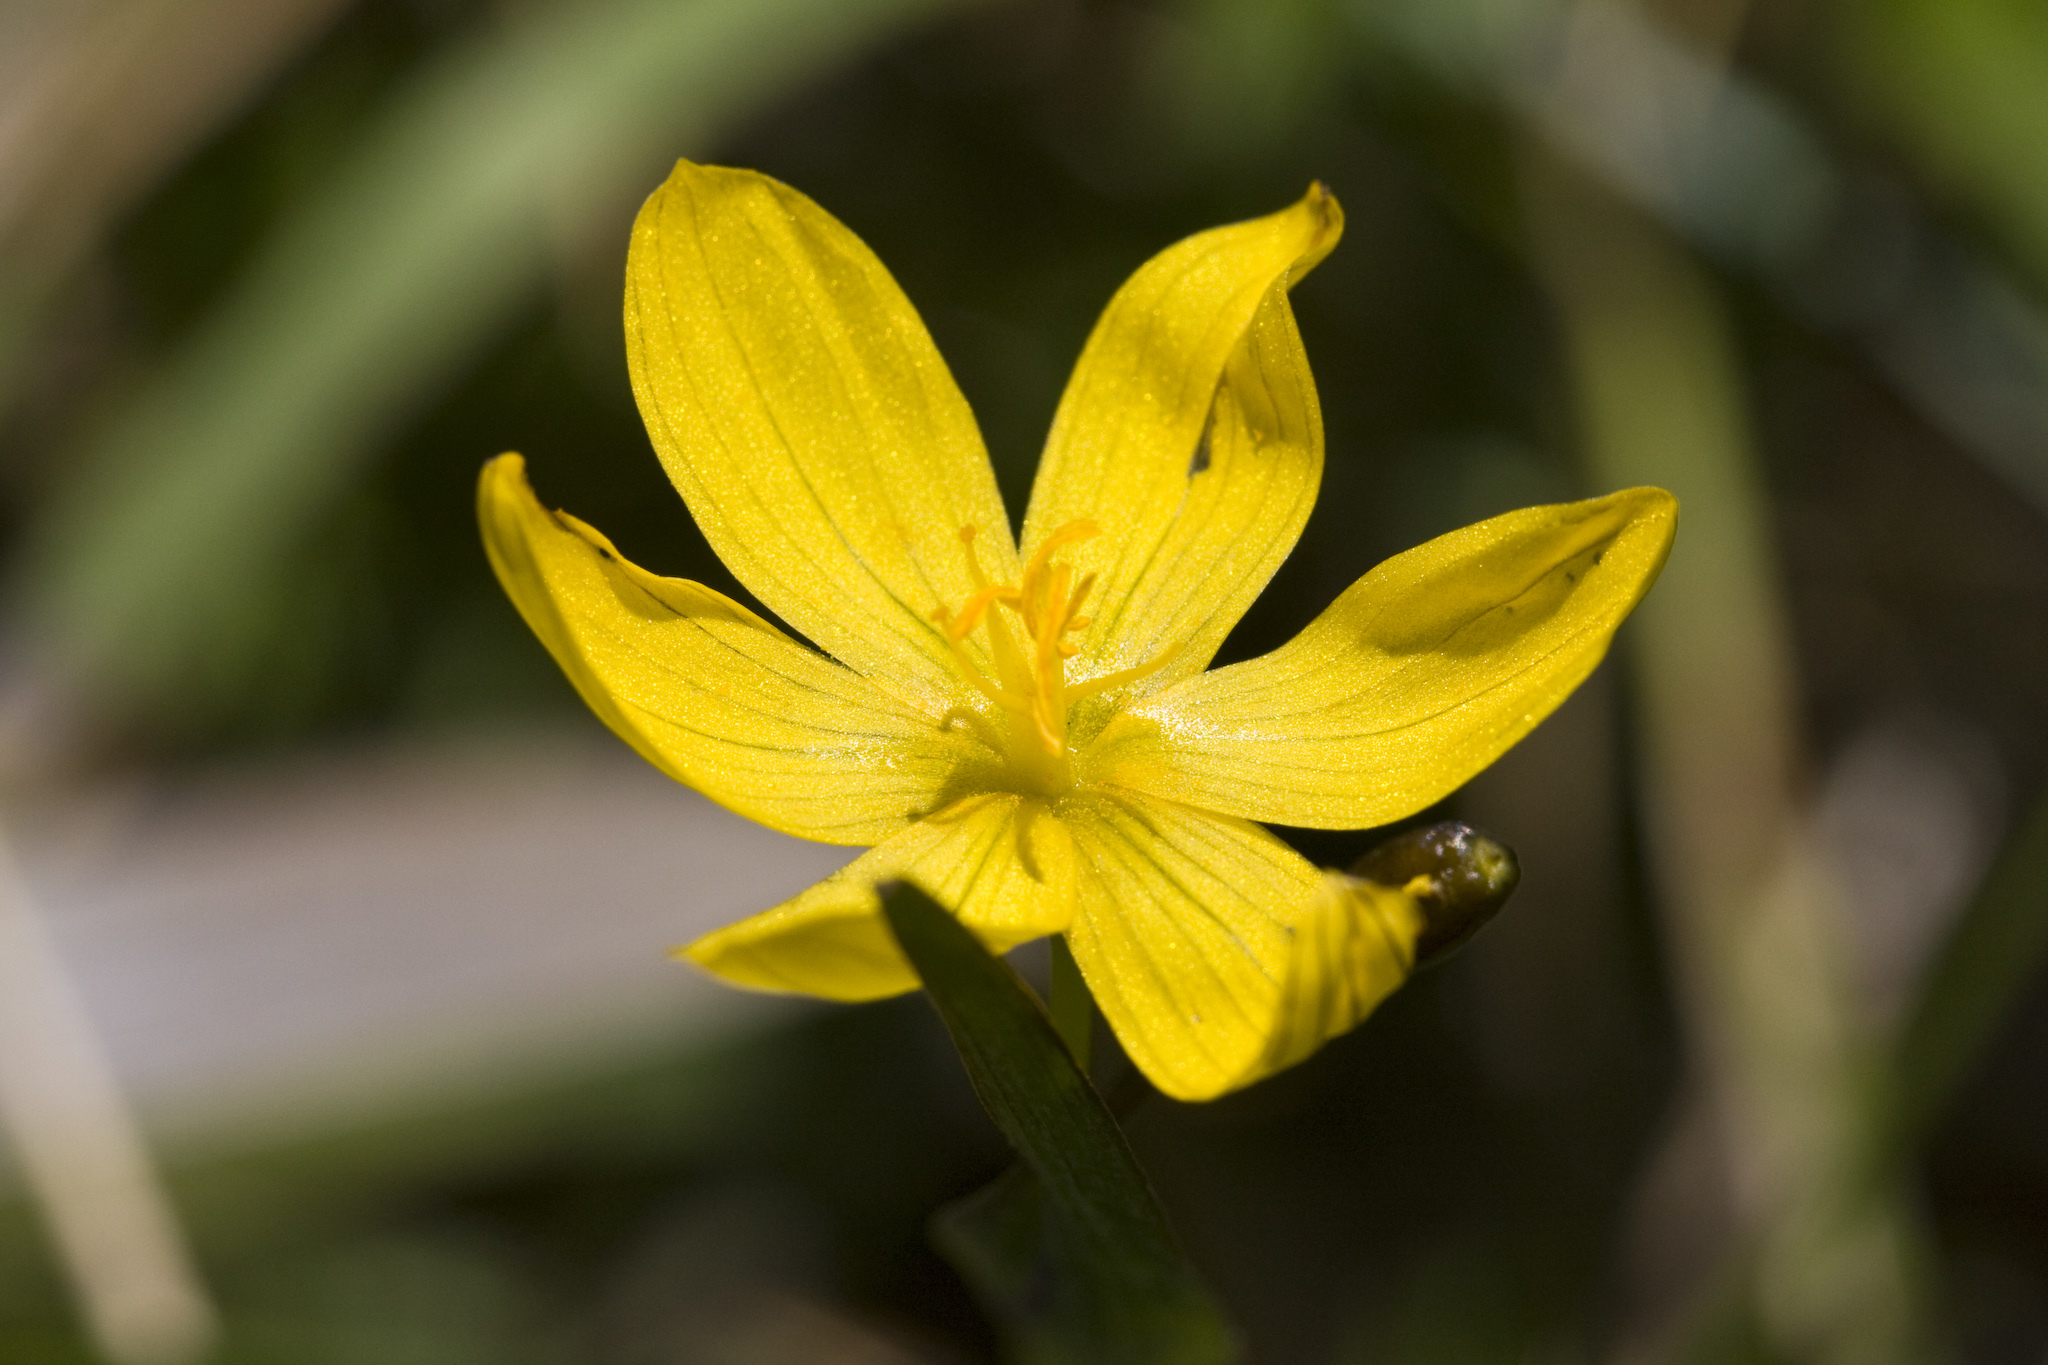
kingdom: Plantae
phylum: Tracheophyta
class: Liliopsida
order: Asparagales
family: Iridaceae
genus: Sisyrinchium
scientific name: Sisyrinchium californicum
